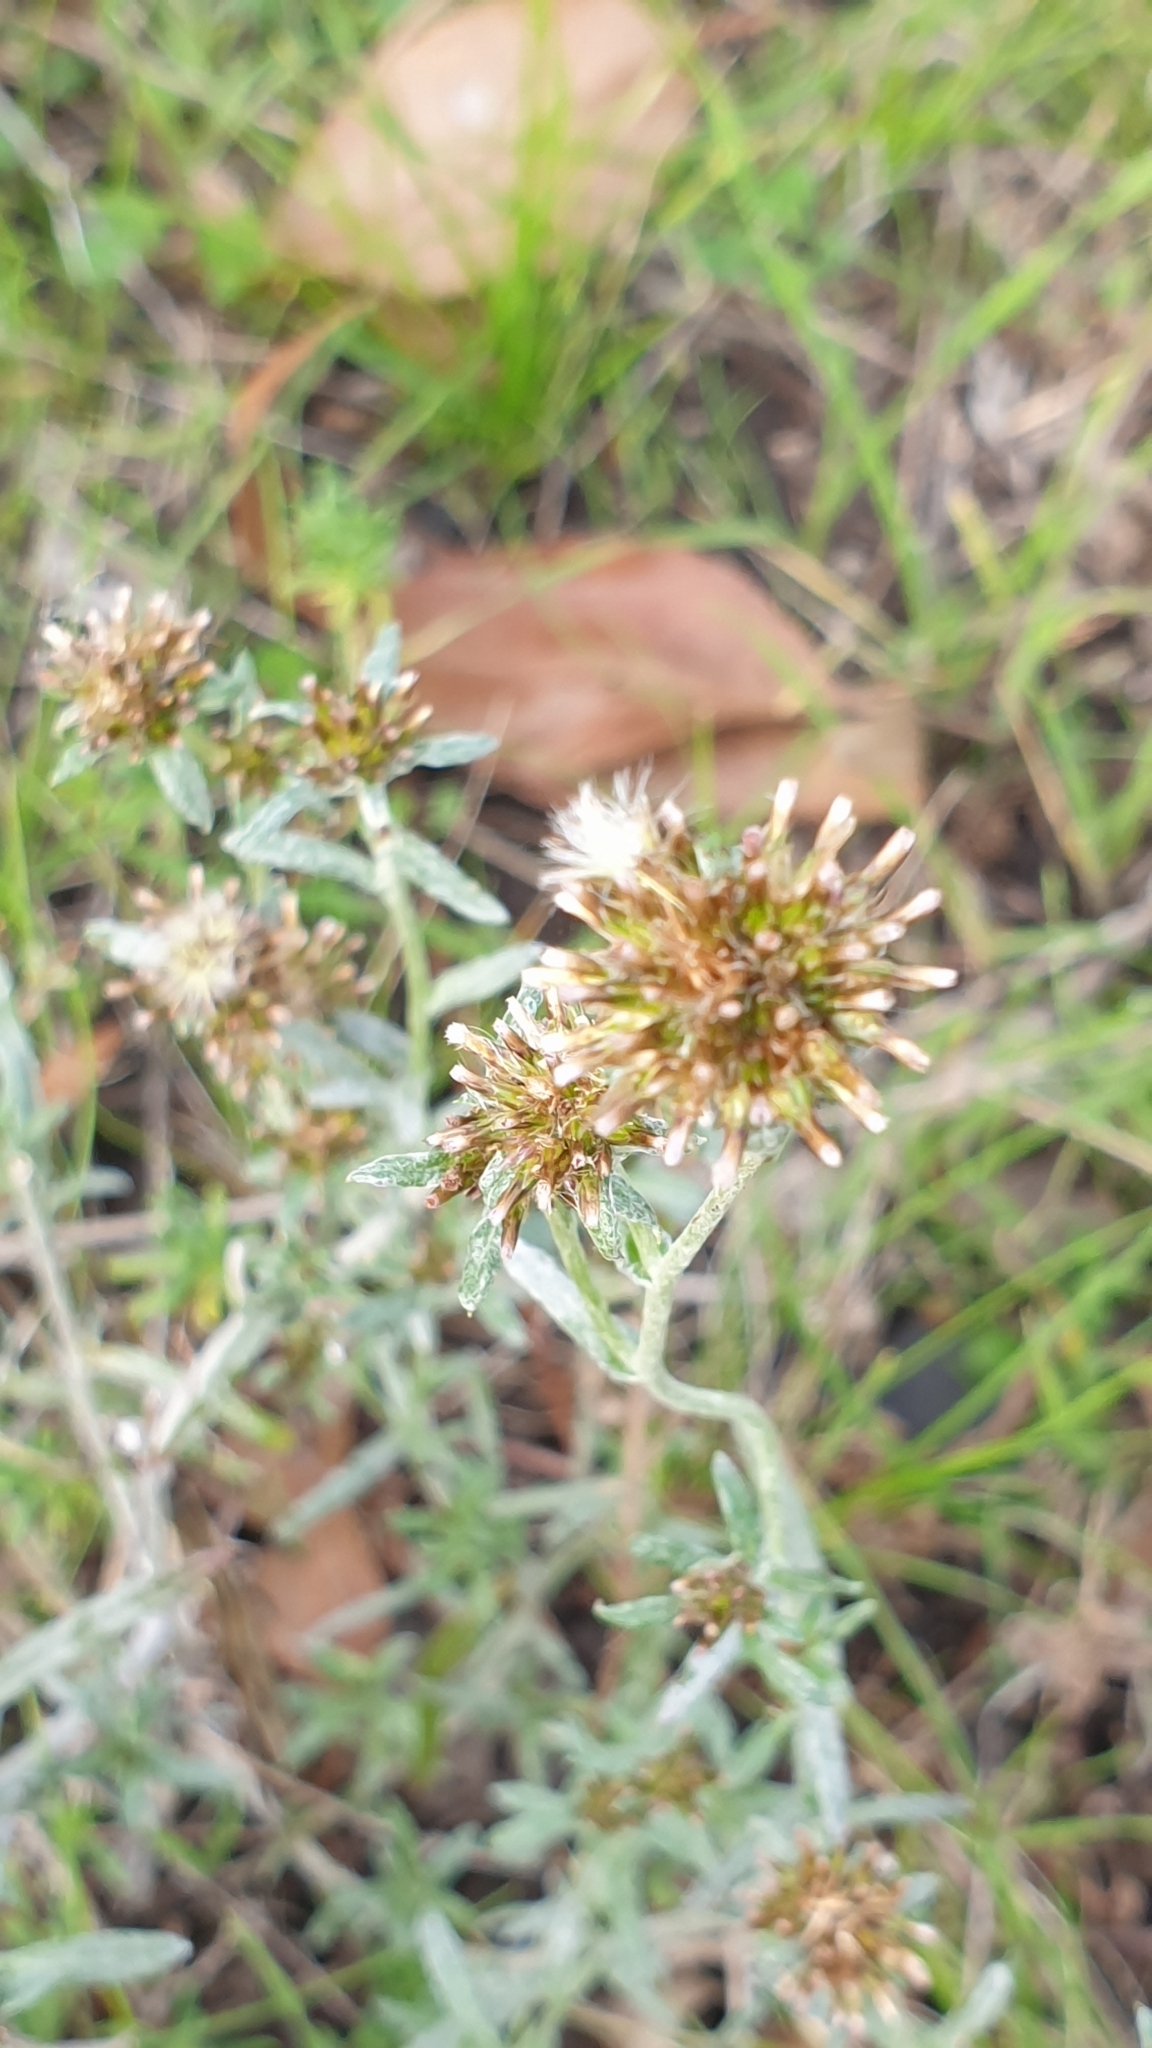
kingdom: Plantae
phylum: Tracheophyta
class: Magnoliopsida
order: Asterales
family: Asteraceae
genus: Euchiton
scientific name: Euchiton sphaericus
